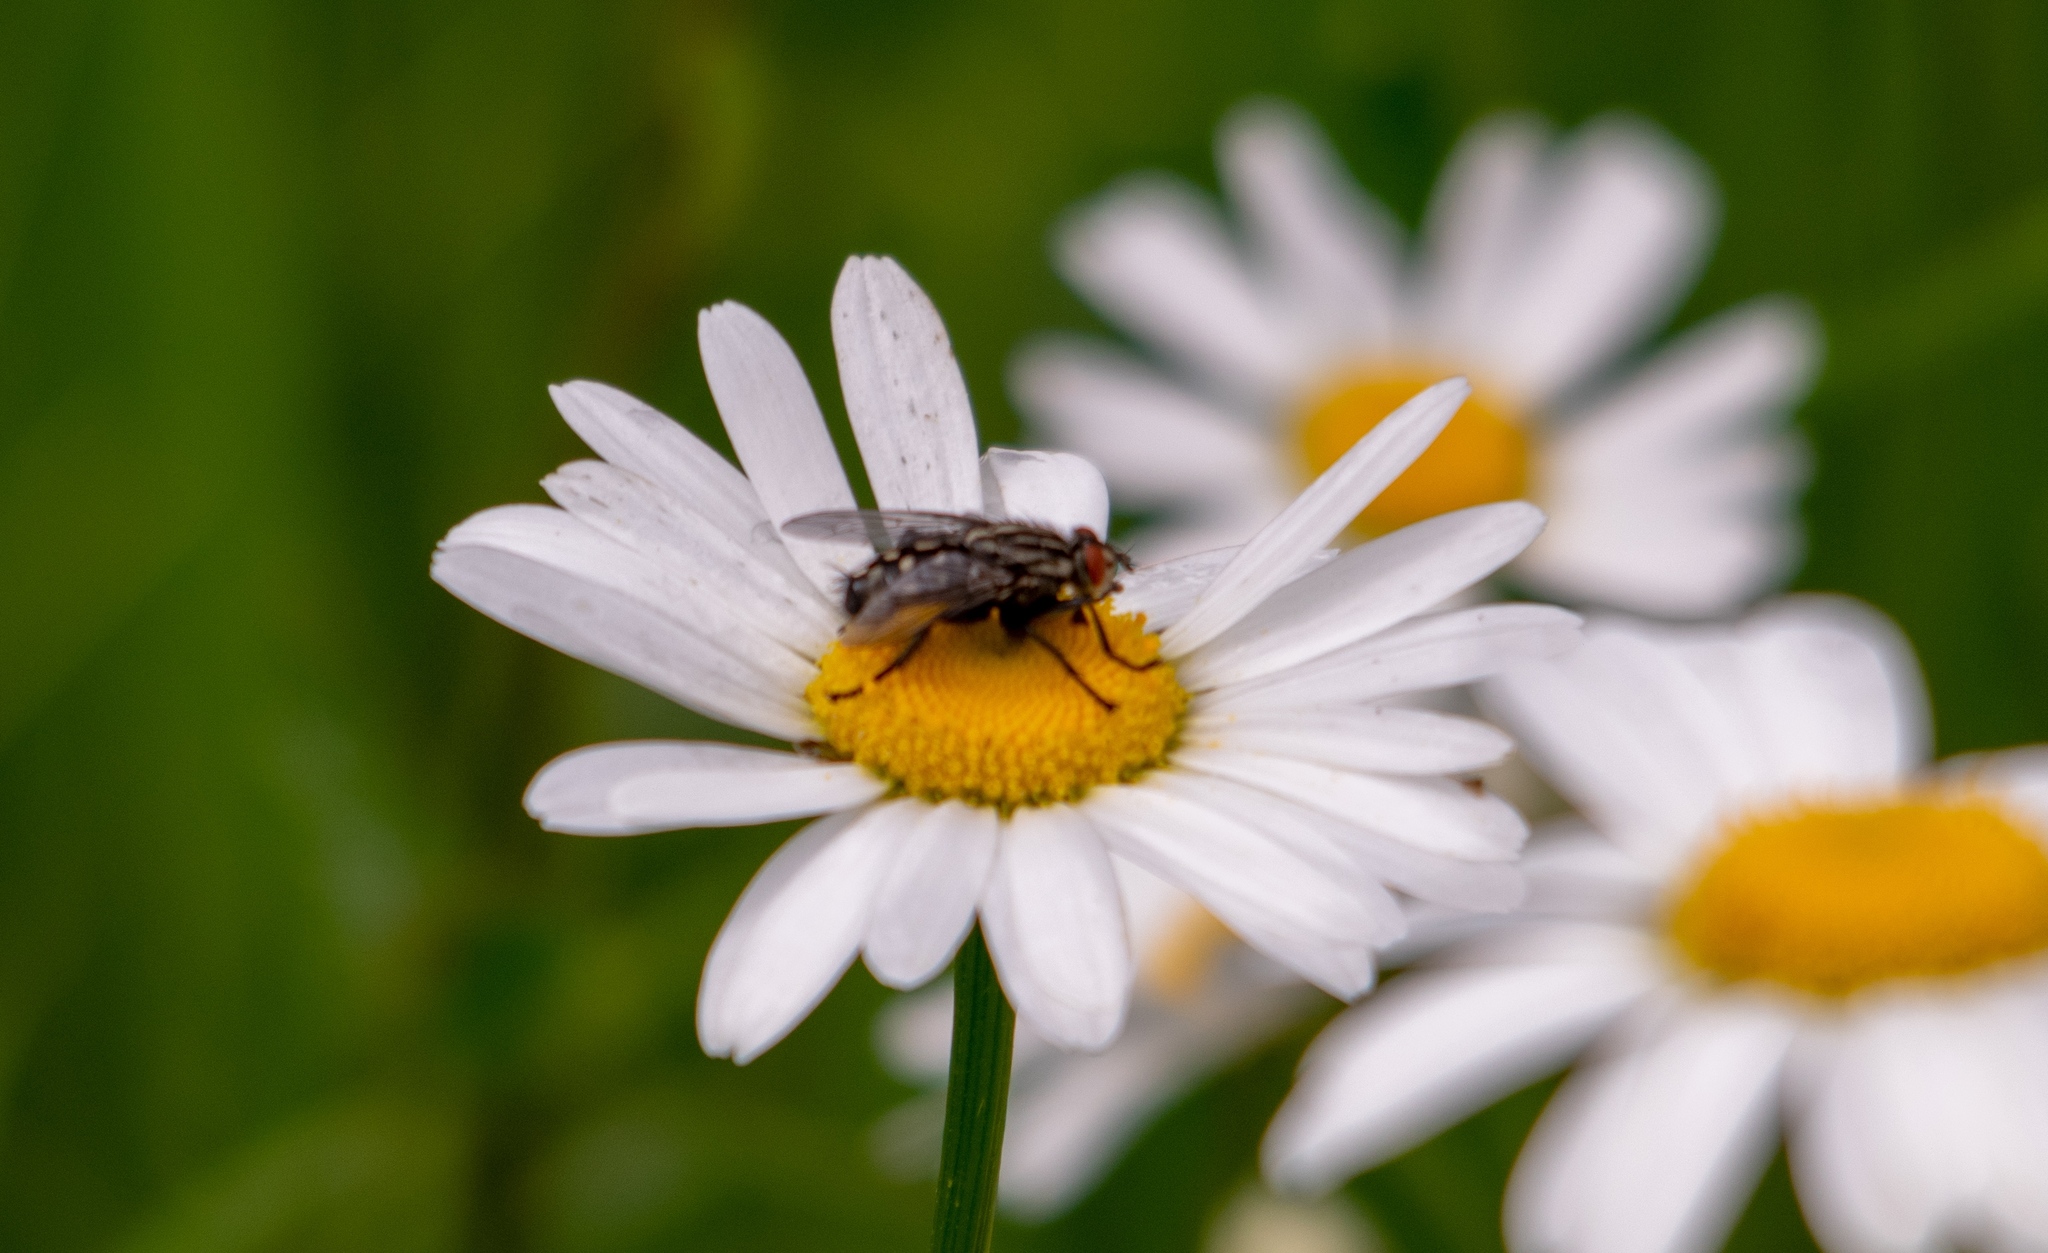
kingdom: Plantae
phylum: Tracheophyta
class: Magnoliopsida
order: Asterales
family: Asteraceae
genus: Leucanthemum
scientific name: Leucanthemum vulgare
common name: Oxeye daisy
